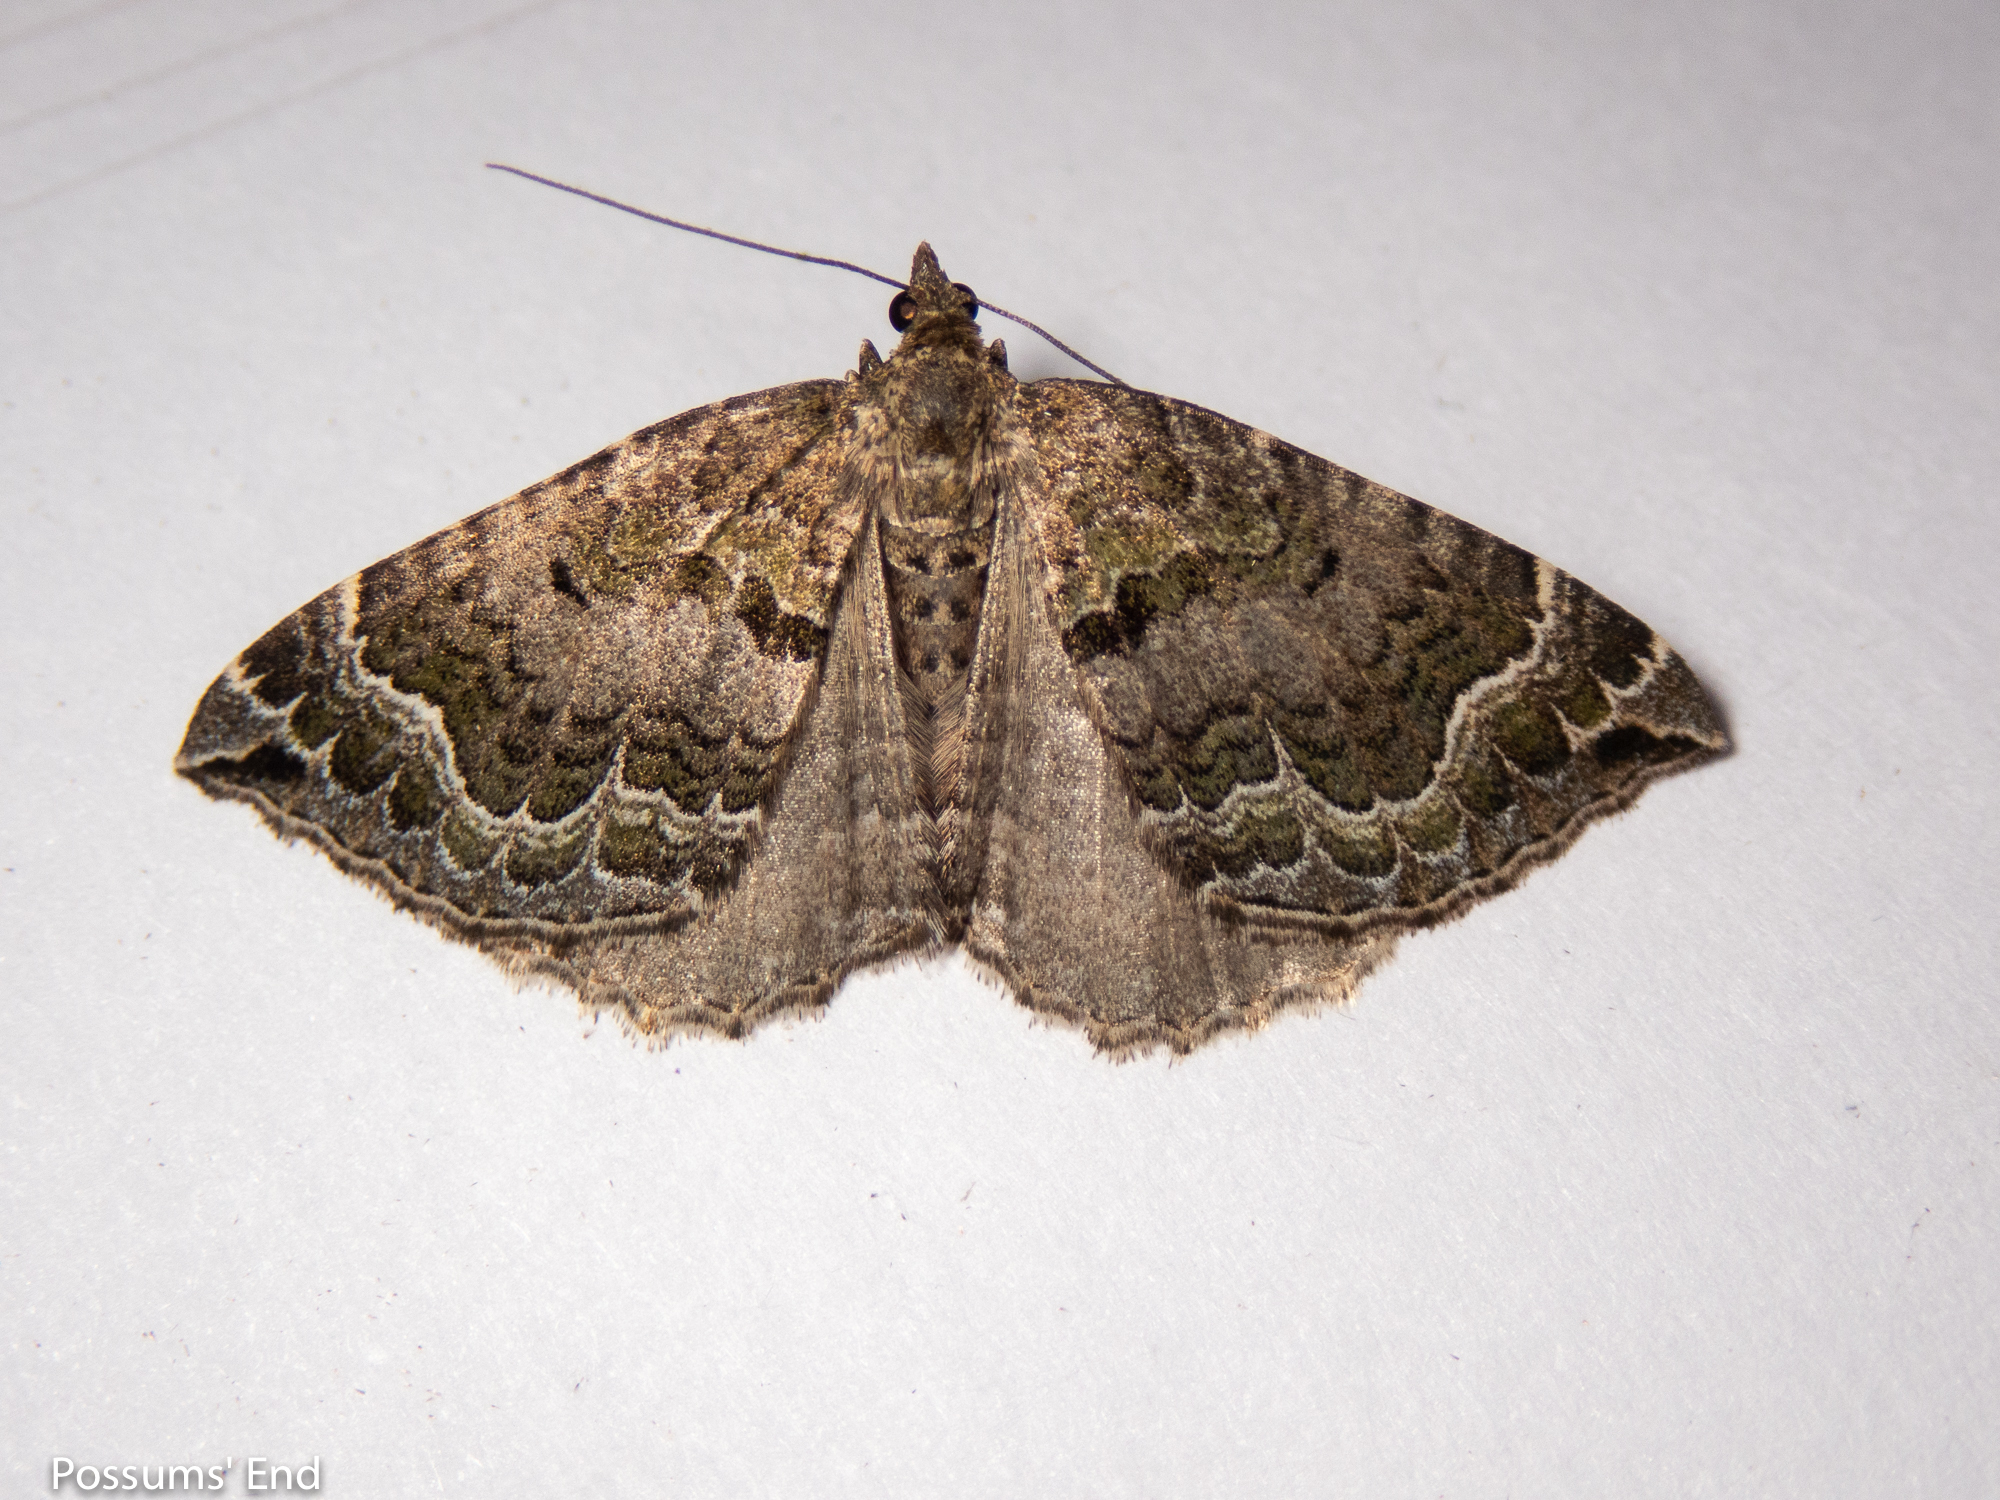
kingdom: Animalia
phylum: Arthropoda
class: Insecta
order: Lepidoptera
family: Geometridae
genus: Hydriomena
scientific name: Hydriomena rixata
